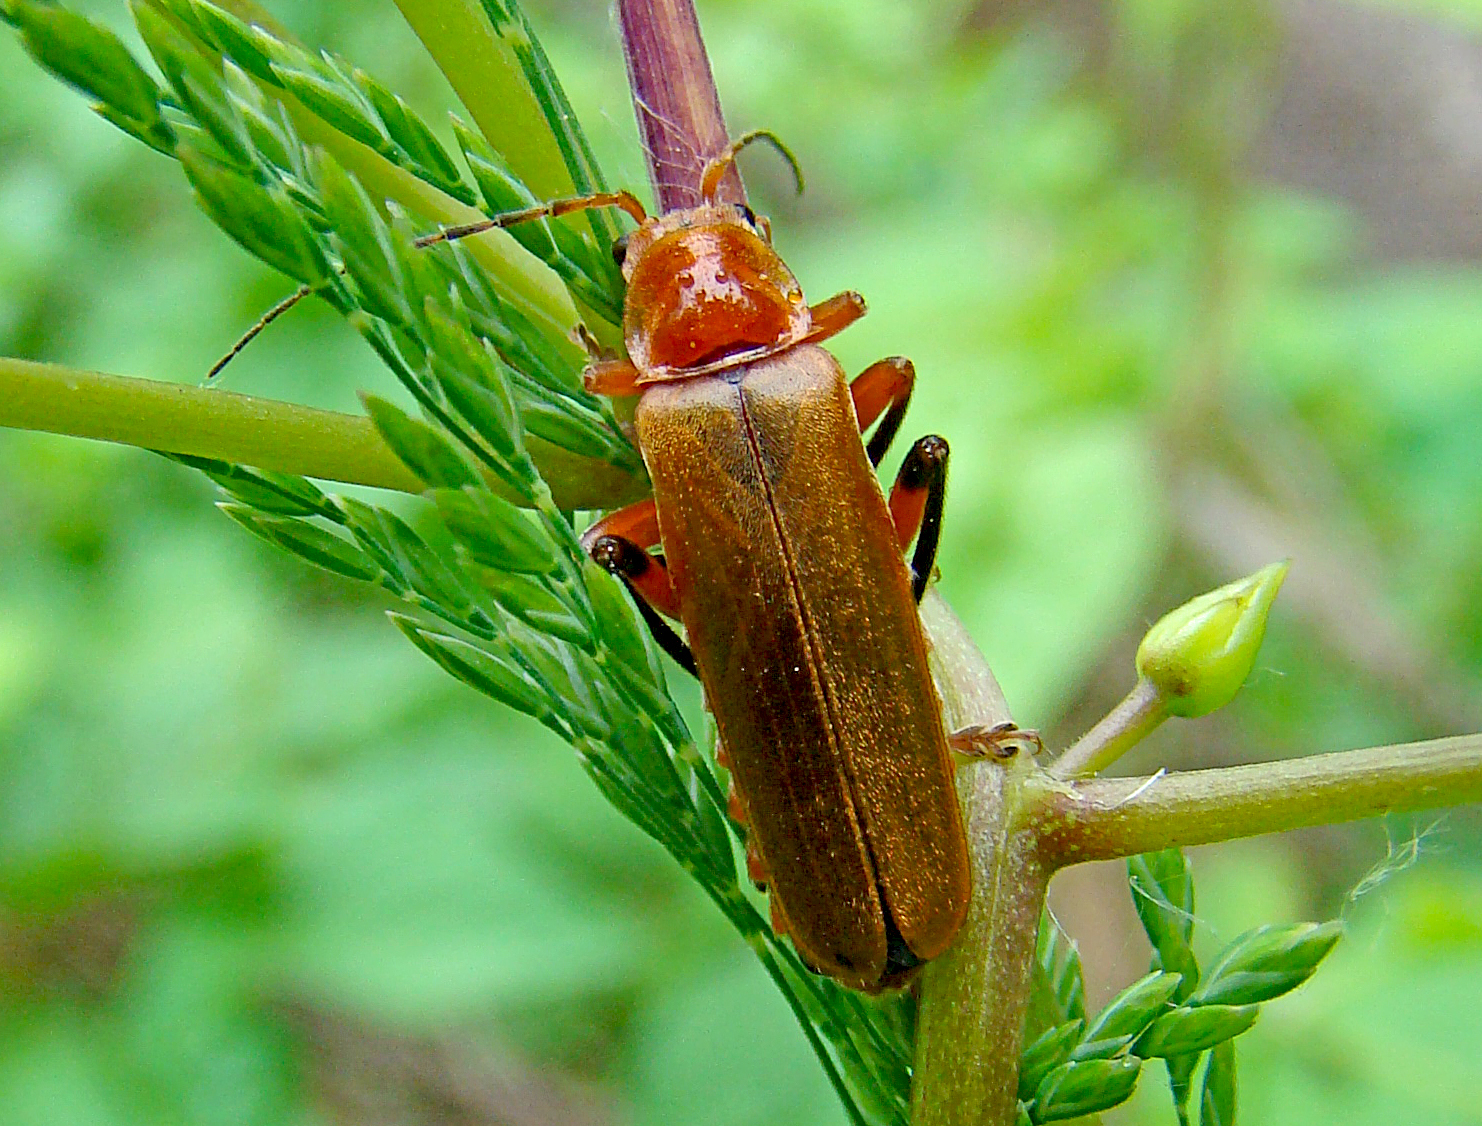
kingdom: Animalia
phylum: Arthropoda
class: Insecta
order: Coleoptera
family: Cantharidae
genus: Cantharis
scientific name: Cantharis livida
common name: Livid soldier beetle
